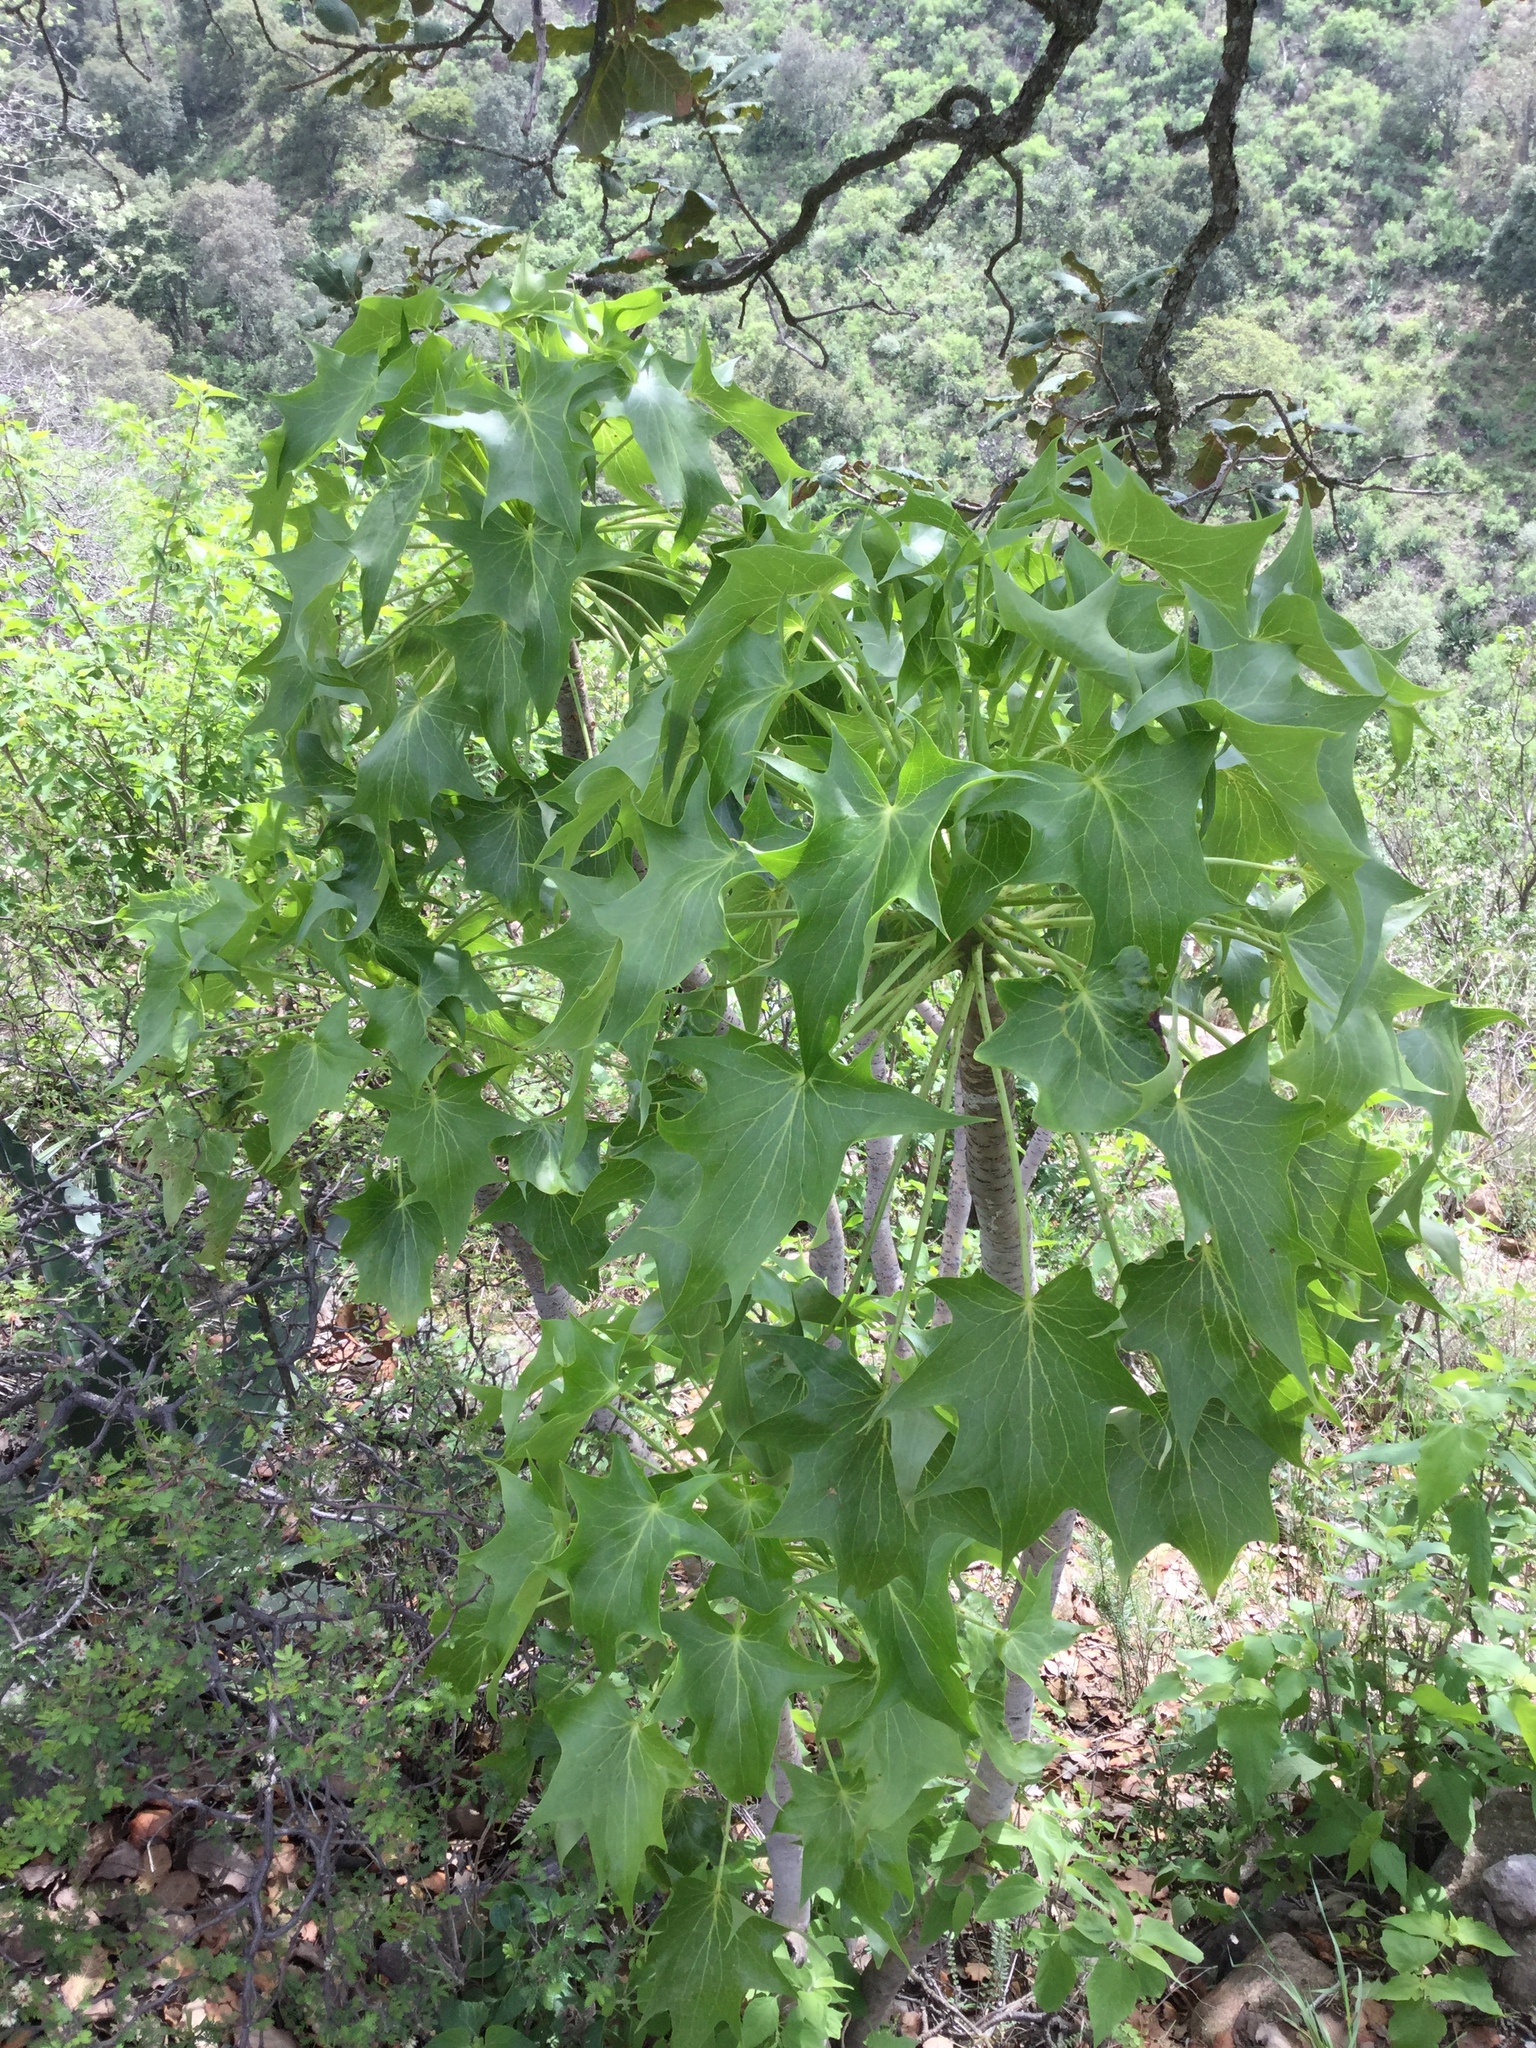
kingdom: Plantae
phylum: Tracheophyta
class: Magnoliopsida
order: Asterales
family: Asteraceae
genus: Pittocaulon
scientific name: Pittocaulon praecox
